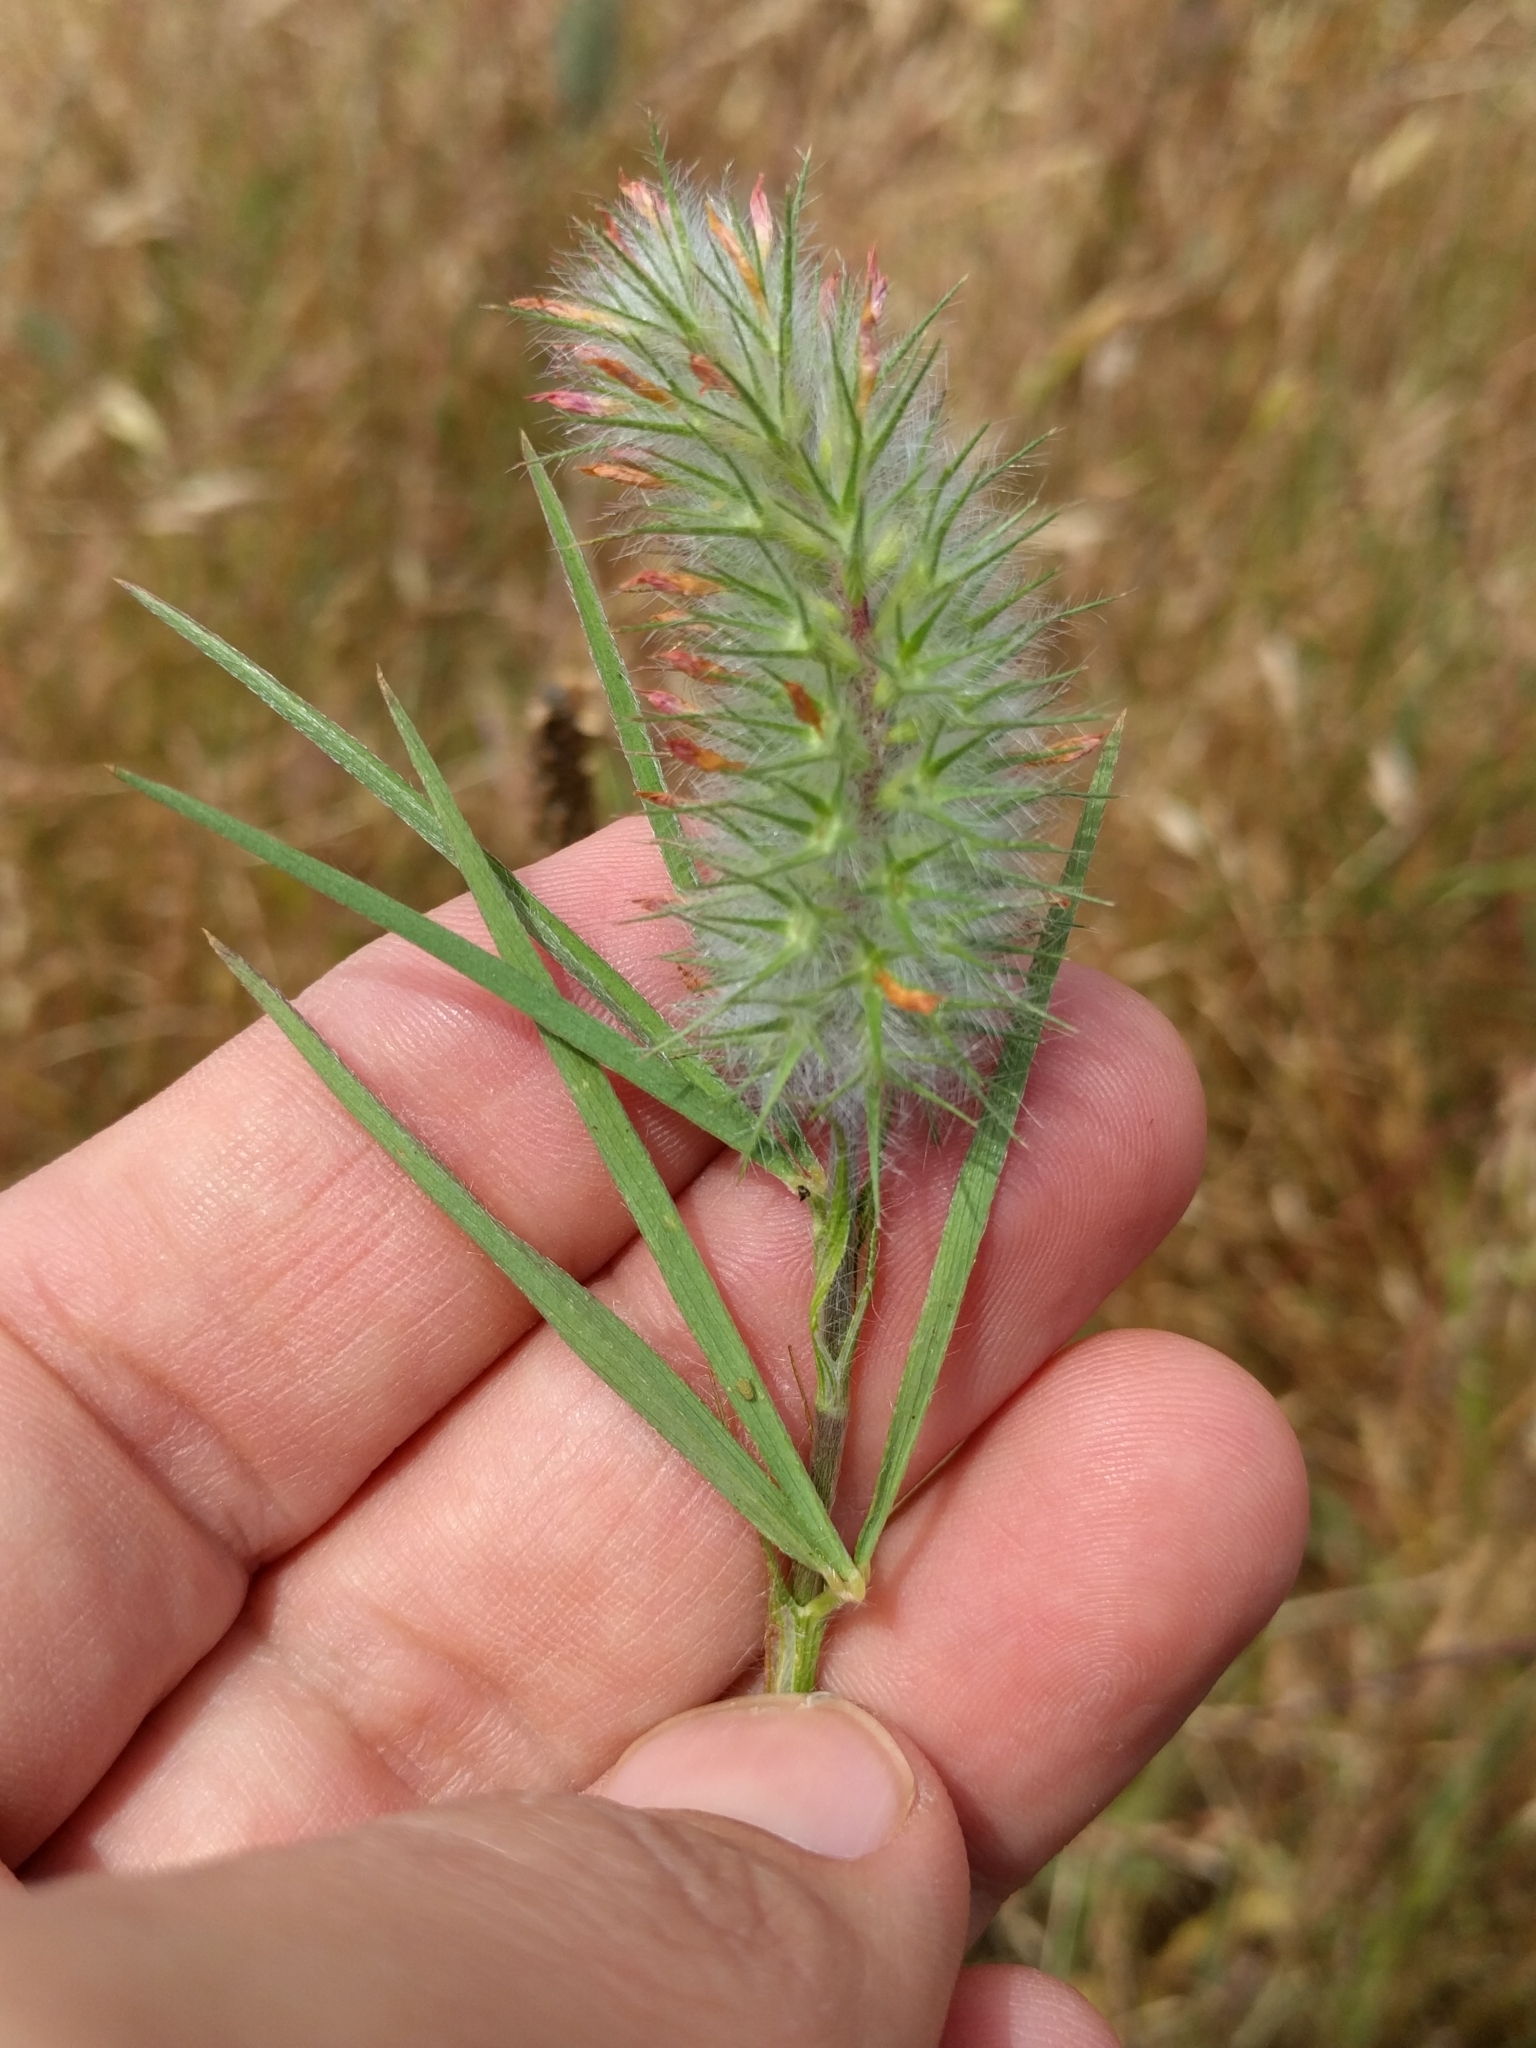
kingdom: Plantae
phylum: Tracheophyta
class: Magnoliopsida
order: Fabales
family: Fabaceae
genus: Trifolium
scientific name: Trifolium angustifolium
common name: Narrow clover
